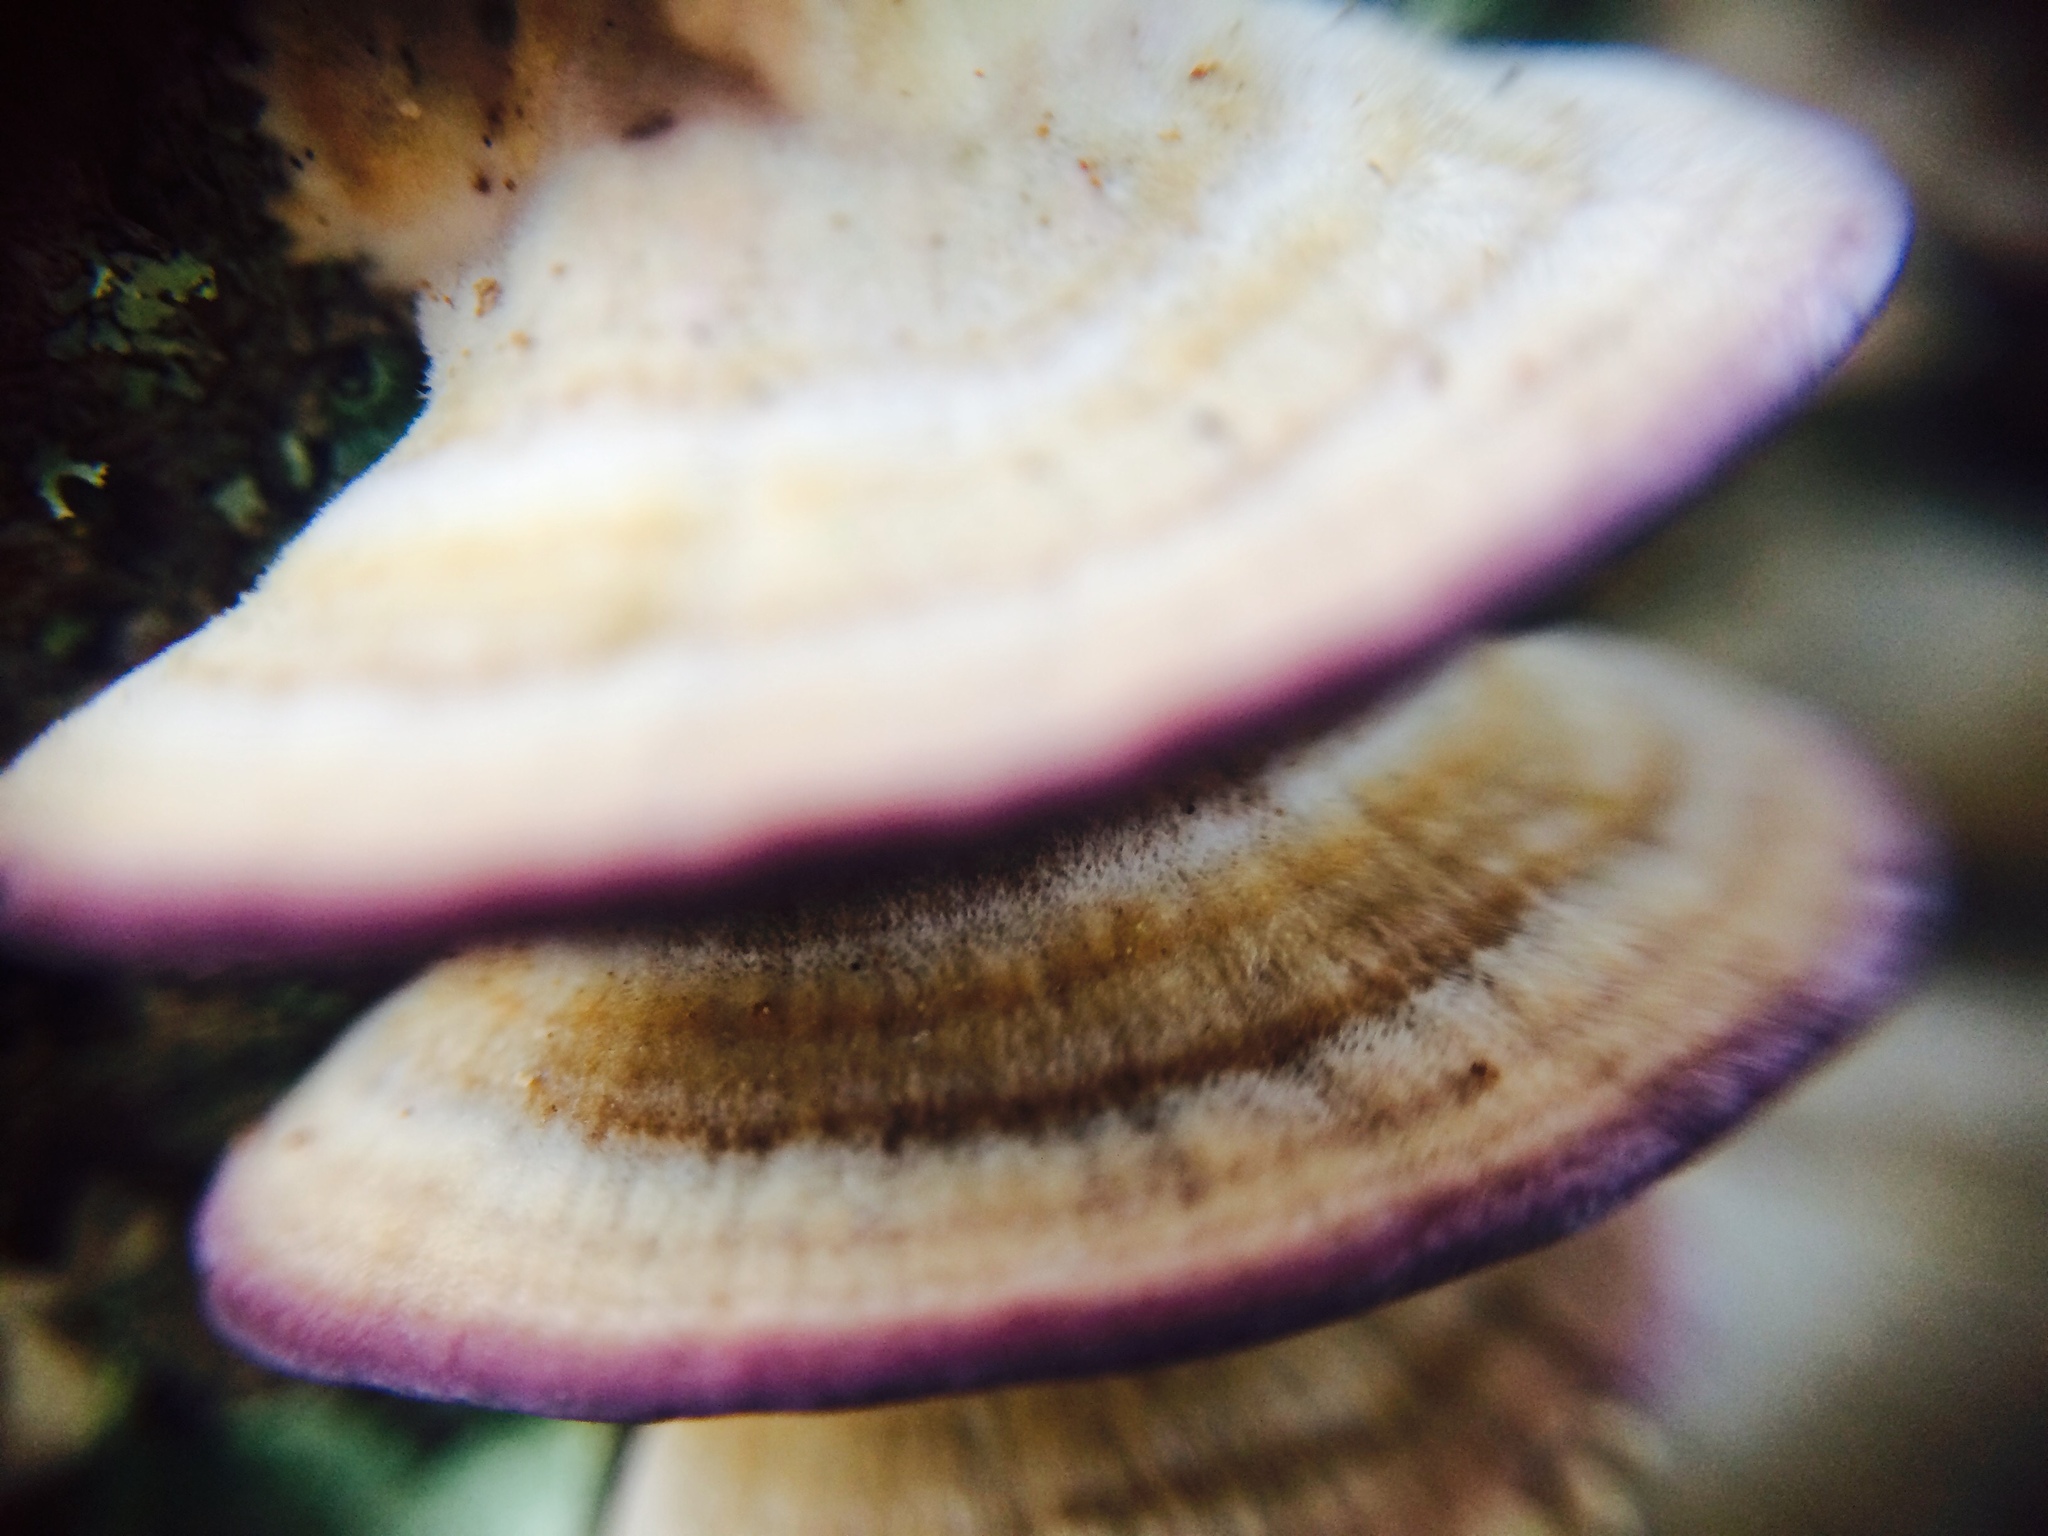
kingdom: Fungi
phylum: Basidiomycota
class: Agaricomycetes
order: Hymenochaetales
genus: Trichaptum
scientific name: Trichaptum biforme
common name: Violet-toothed polypore
